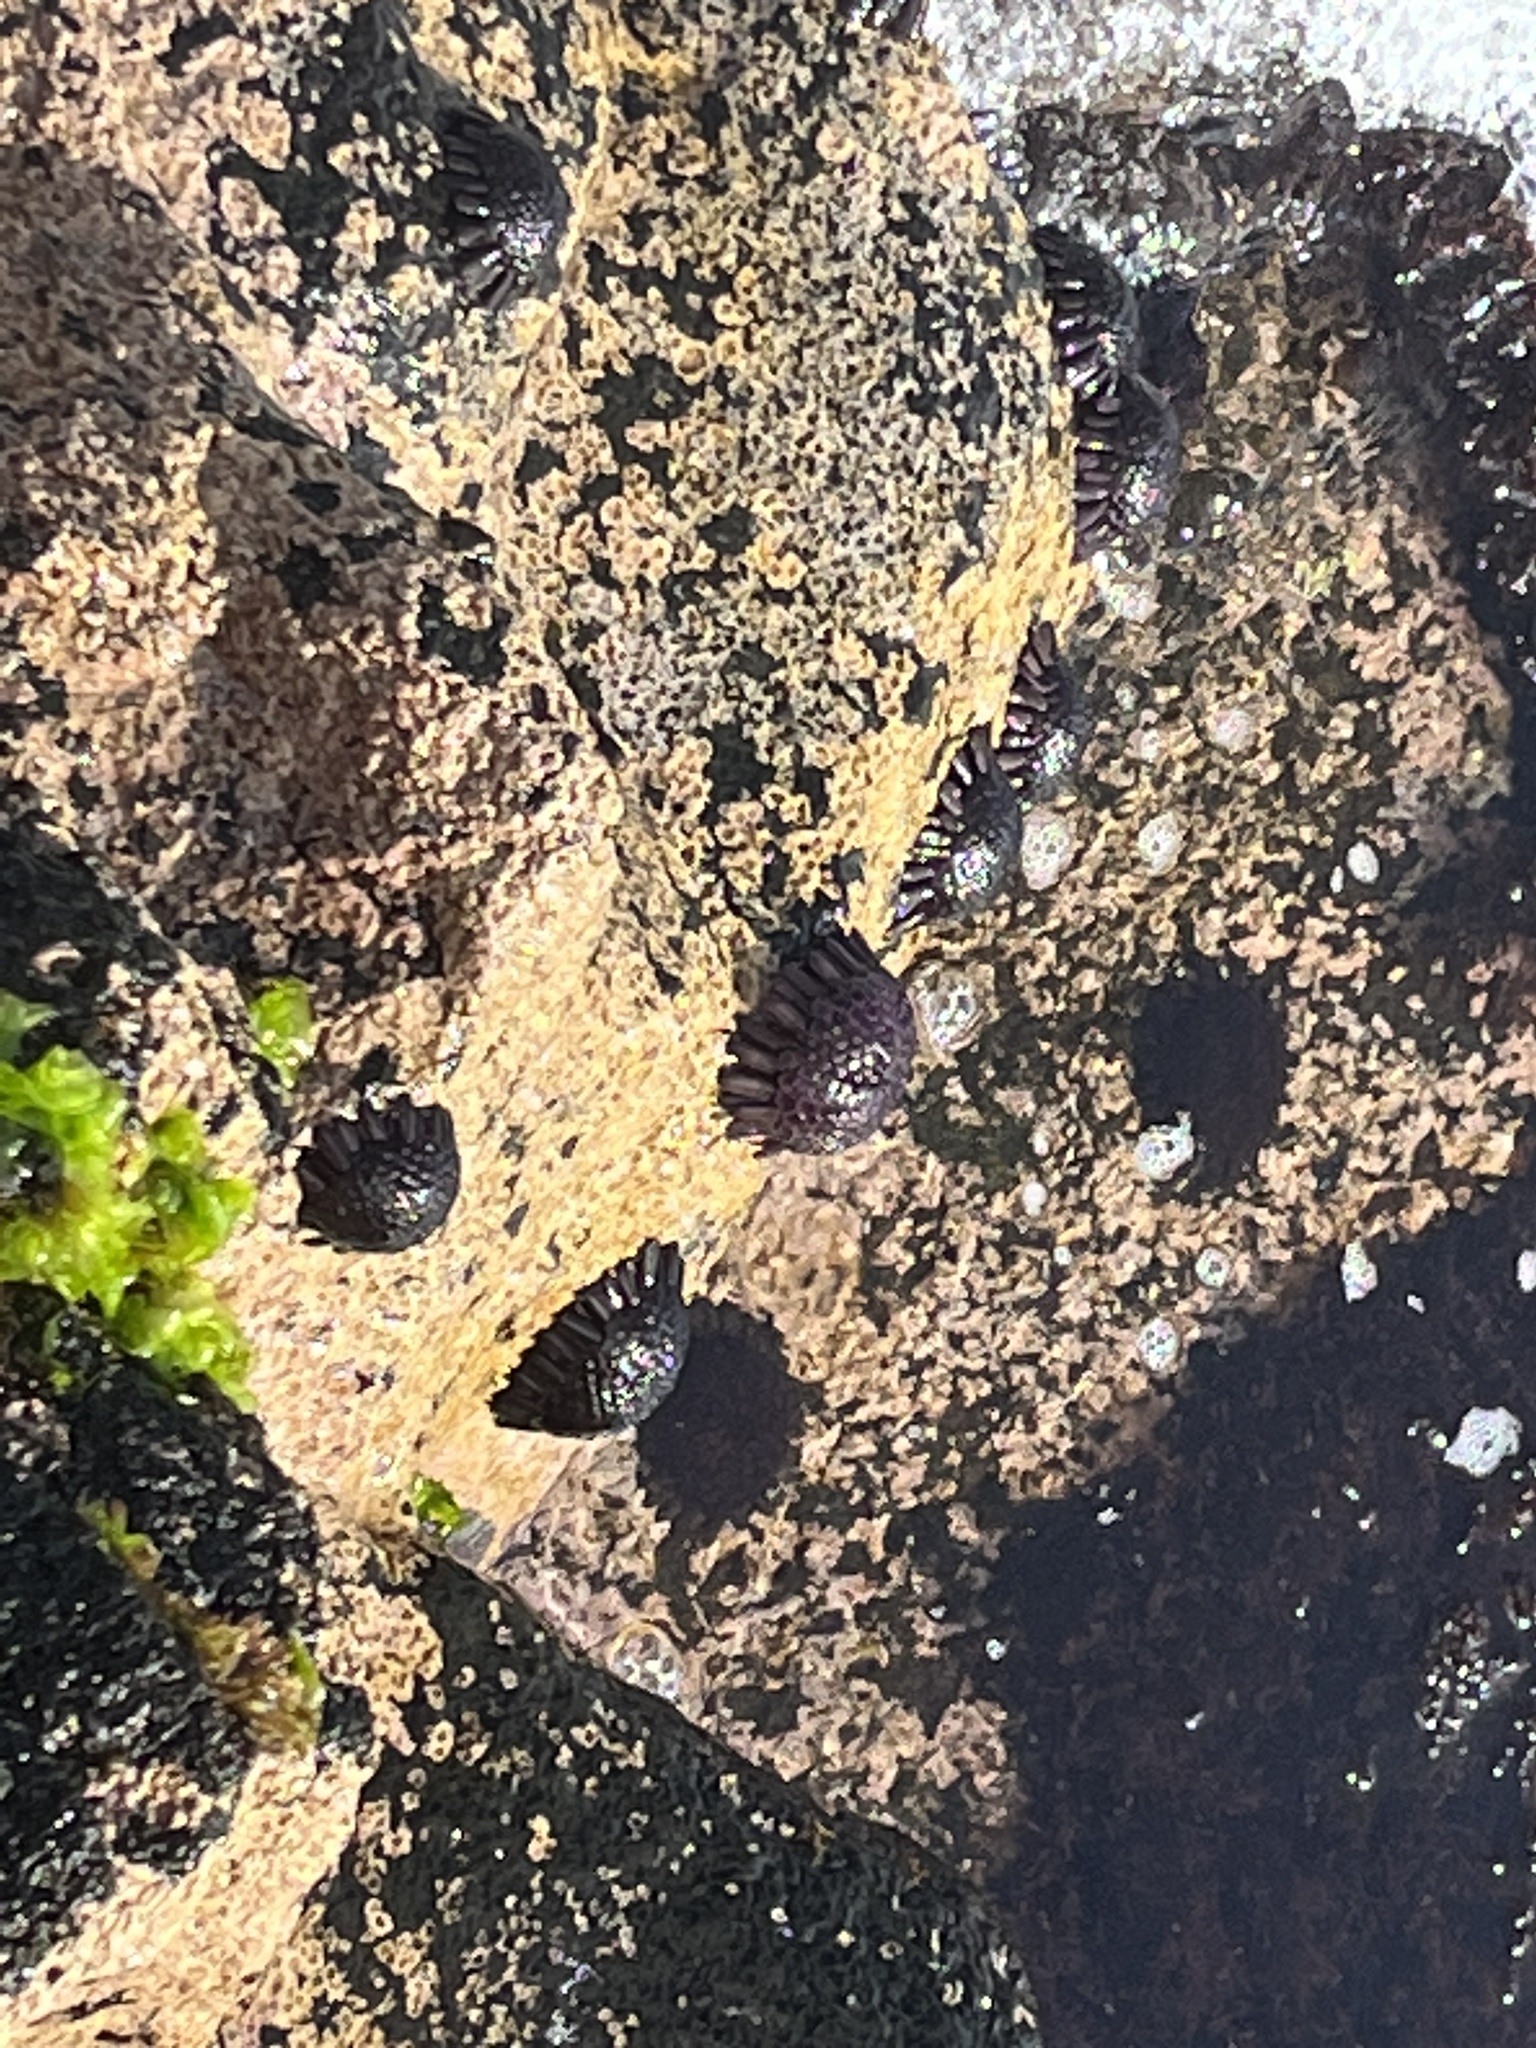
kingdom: Animalia
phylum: Echinodermata
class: Echinoidea
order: Camarodonta
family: Echinometridae
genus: Colobocentrotus
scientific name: Colobocentrotus atratus
